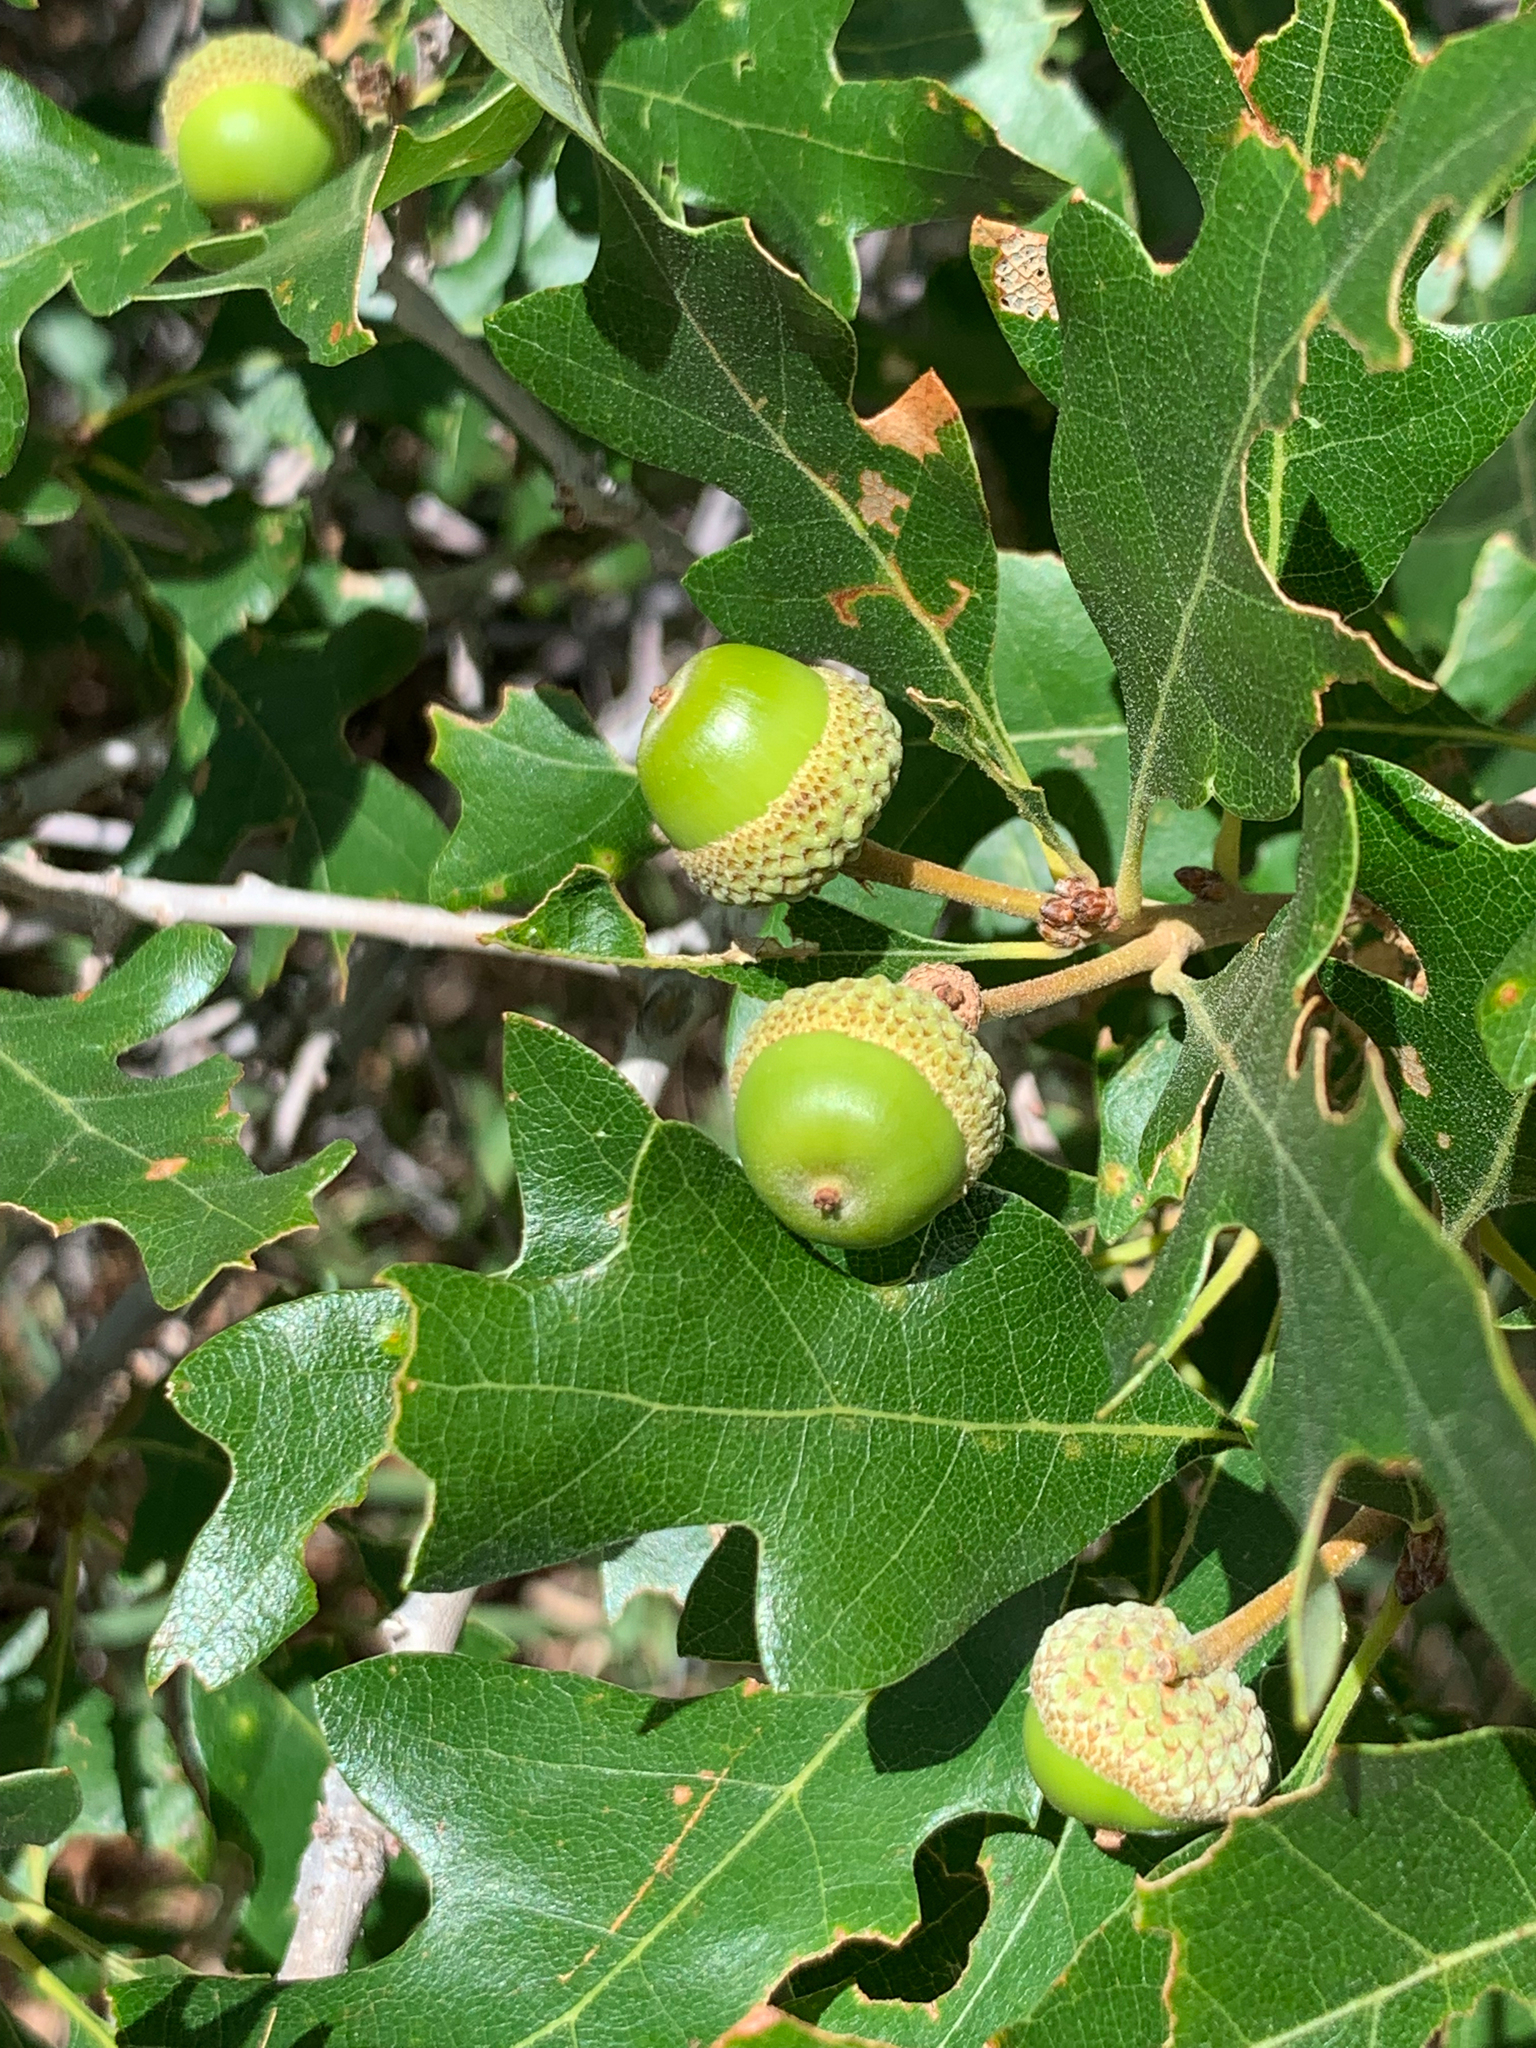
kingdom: Plantae
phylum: Tracheophyta
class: Magnoliopsida
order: Fagales
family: Fagaceae
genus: Quercus
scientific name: Quercus gambelii
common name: Gambel oak
